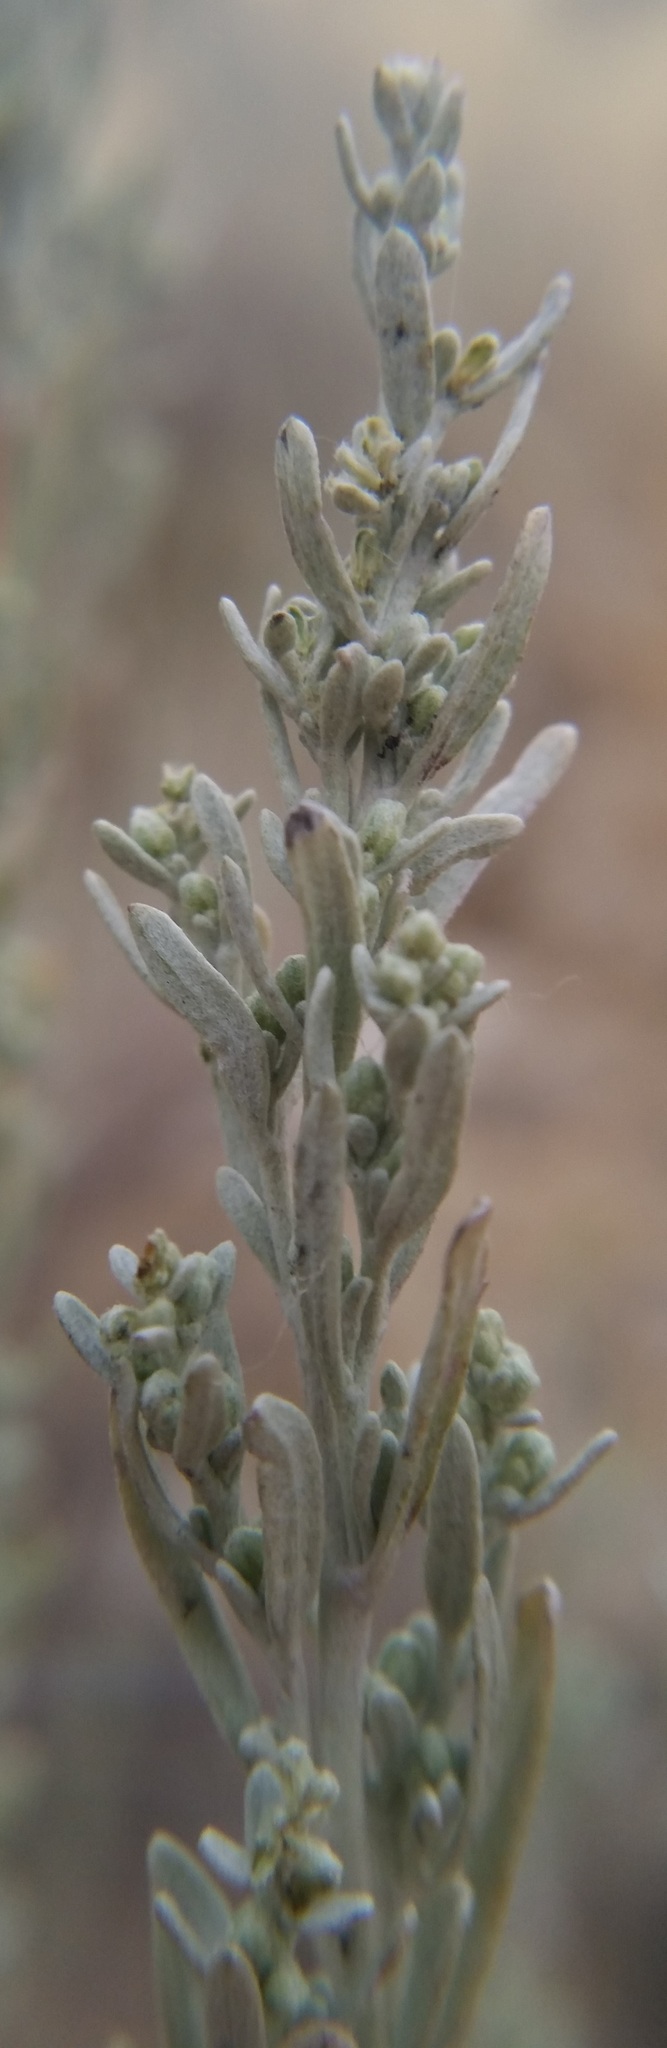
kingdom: Plantae
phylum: Tracheophyta
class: Magnoliopsida
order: Asterales
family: Asteraceae
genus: Artemisia
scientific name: Artemisia tridentata
